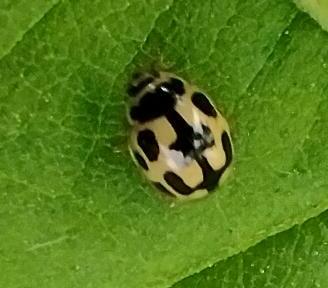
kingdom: Animalia
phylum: Arthropoda
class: Insecta
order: Coleoptera
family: Coccinellidae
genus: Propylaea
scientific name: Propylaea quatuordecimpunctata
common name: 14-spotted ladybird beetle
